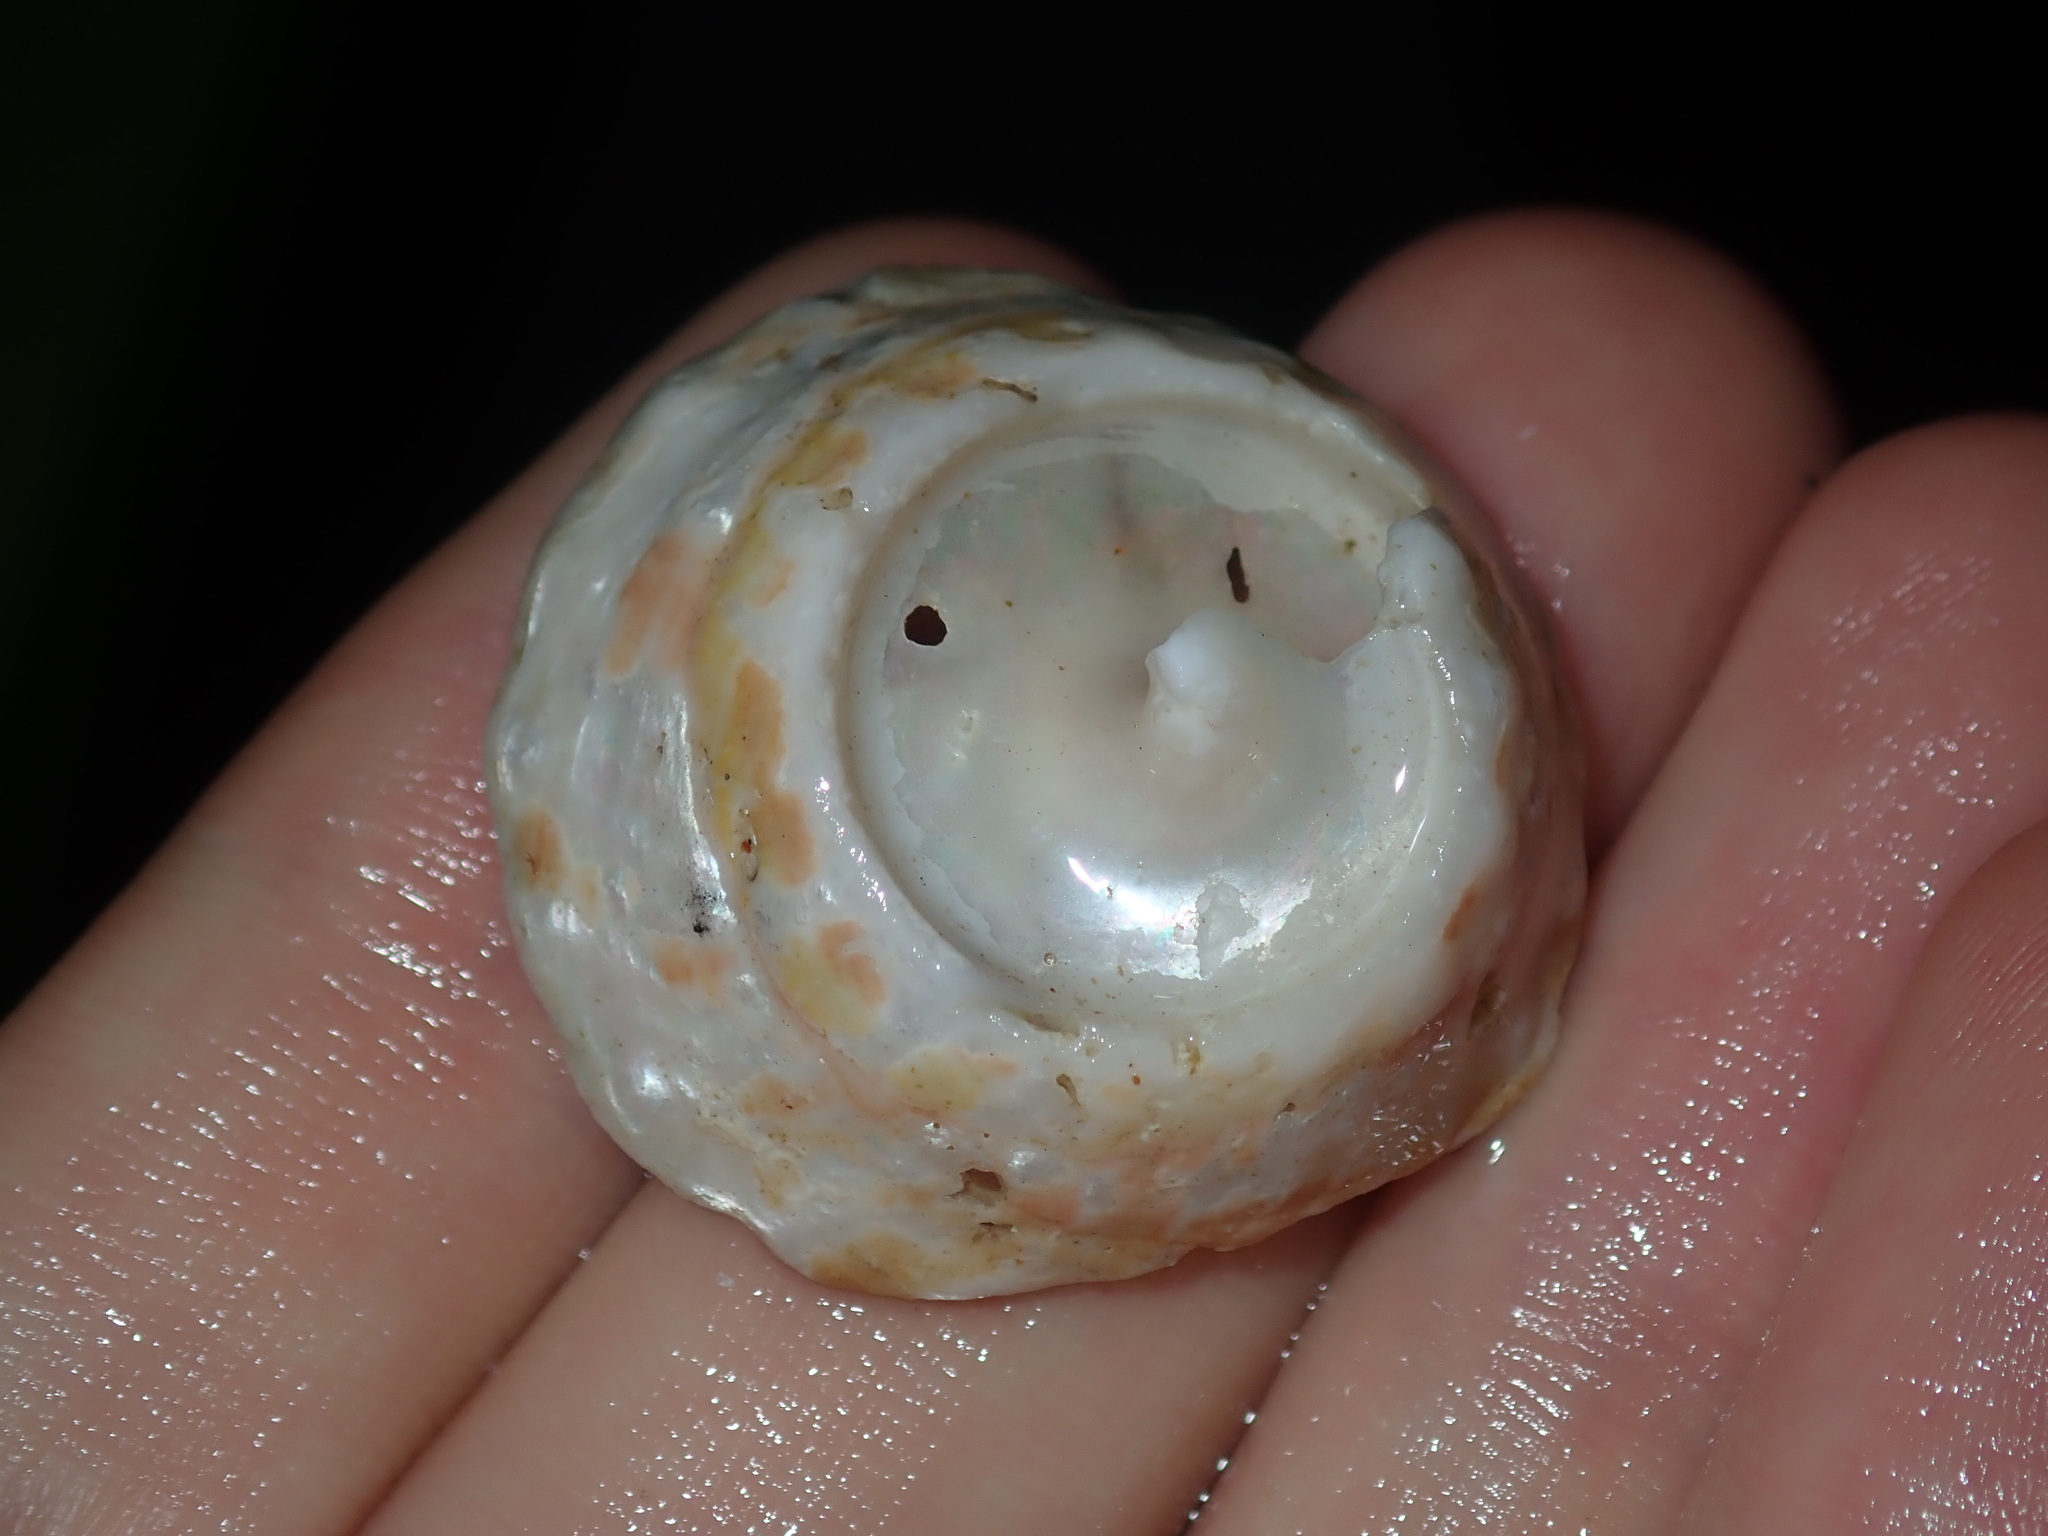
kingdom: Animalia
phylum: Mollusca
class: Gastropoda
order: Trochida
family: Turbinidae
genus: Astralium
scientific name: Astralium tentoriiforme
